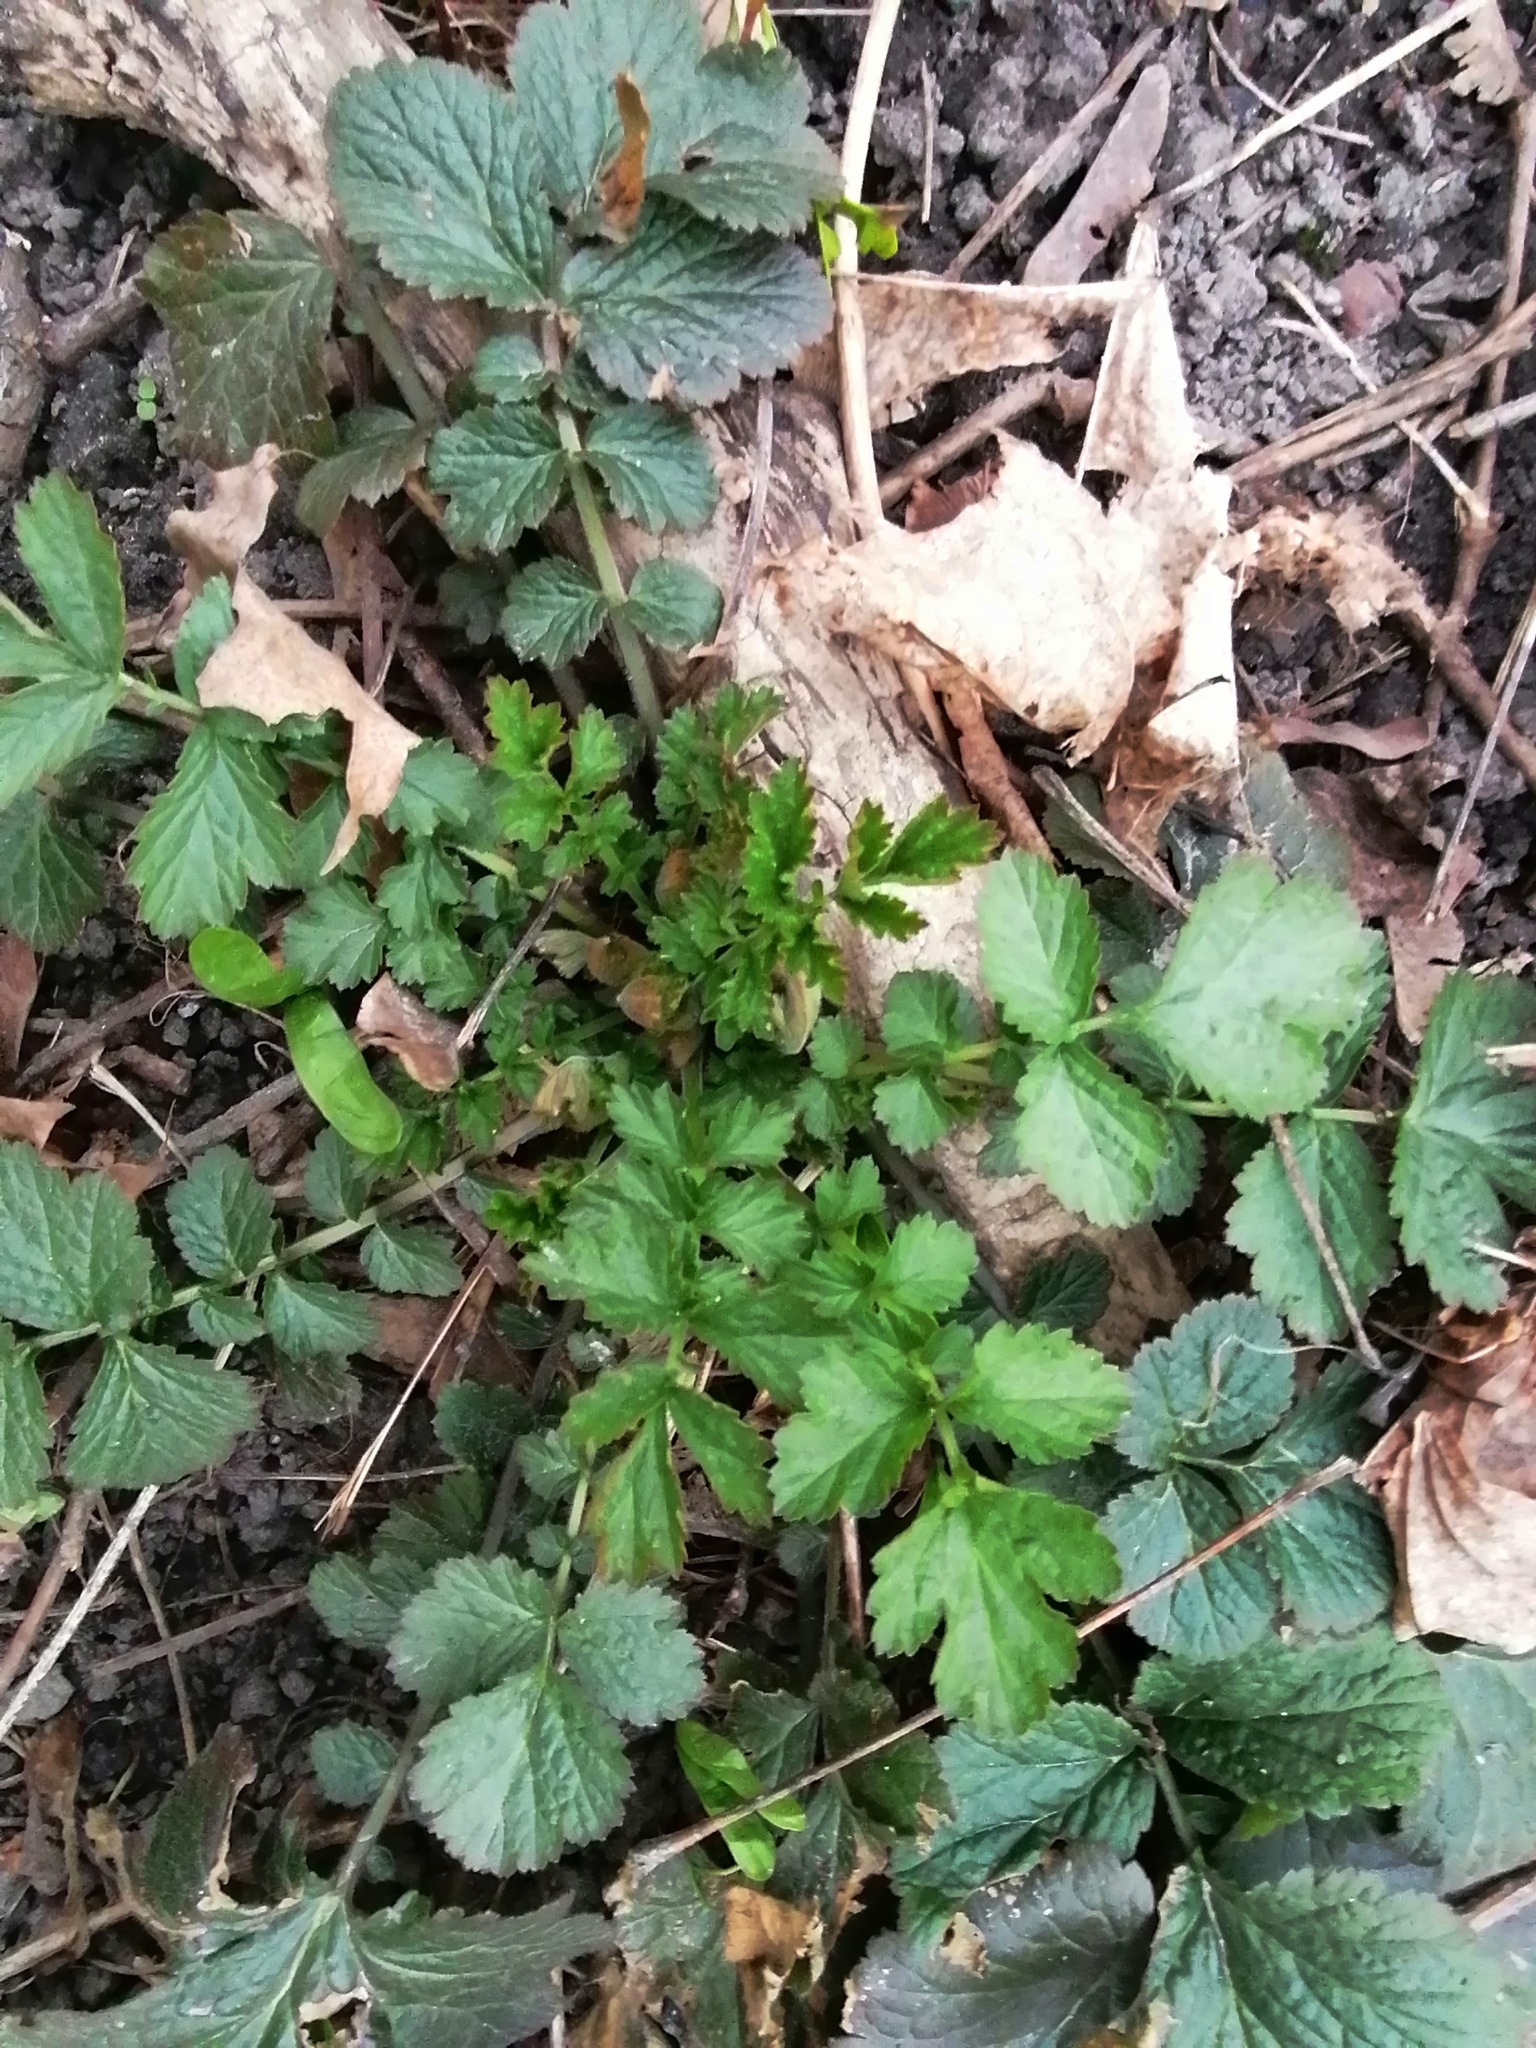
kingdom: Plantae
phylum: Tracheophyta
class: Magnoliopsida
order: Rosales
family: Rosaceae
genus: Geum
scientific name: Geum urbanum
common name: Wood avens
